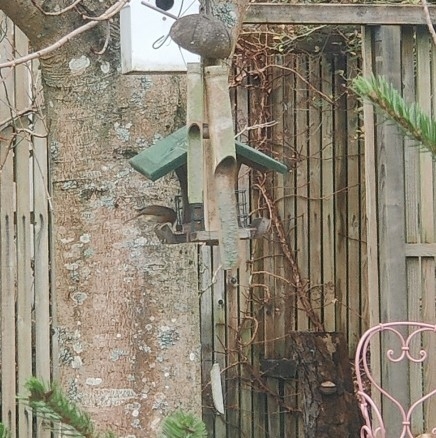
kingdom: Animalia
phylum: Chordata
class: Aves
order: Passeriformes
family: Muscicapidae
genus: Erithacus
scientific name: Erithacus rubecula
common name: European robin
